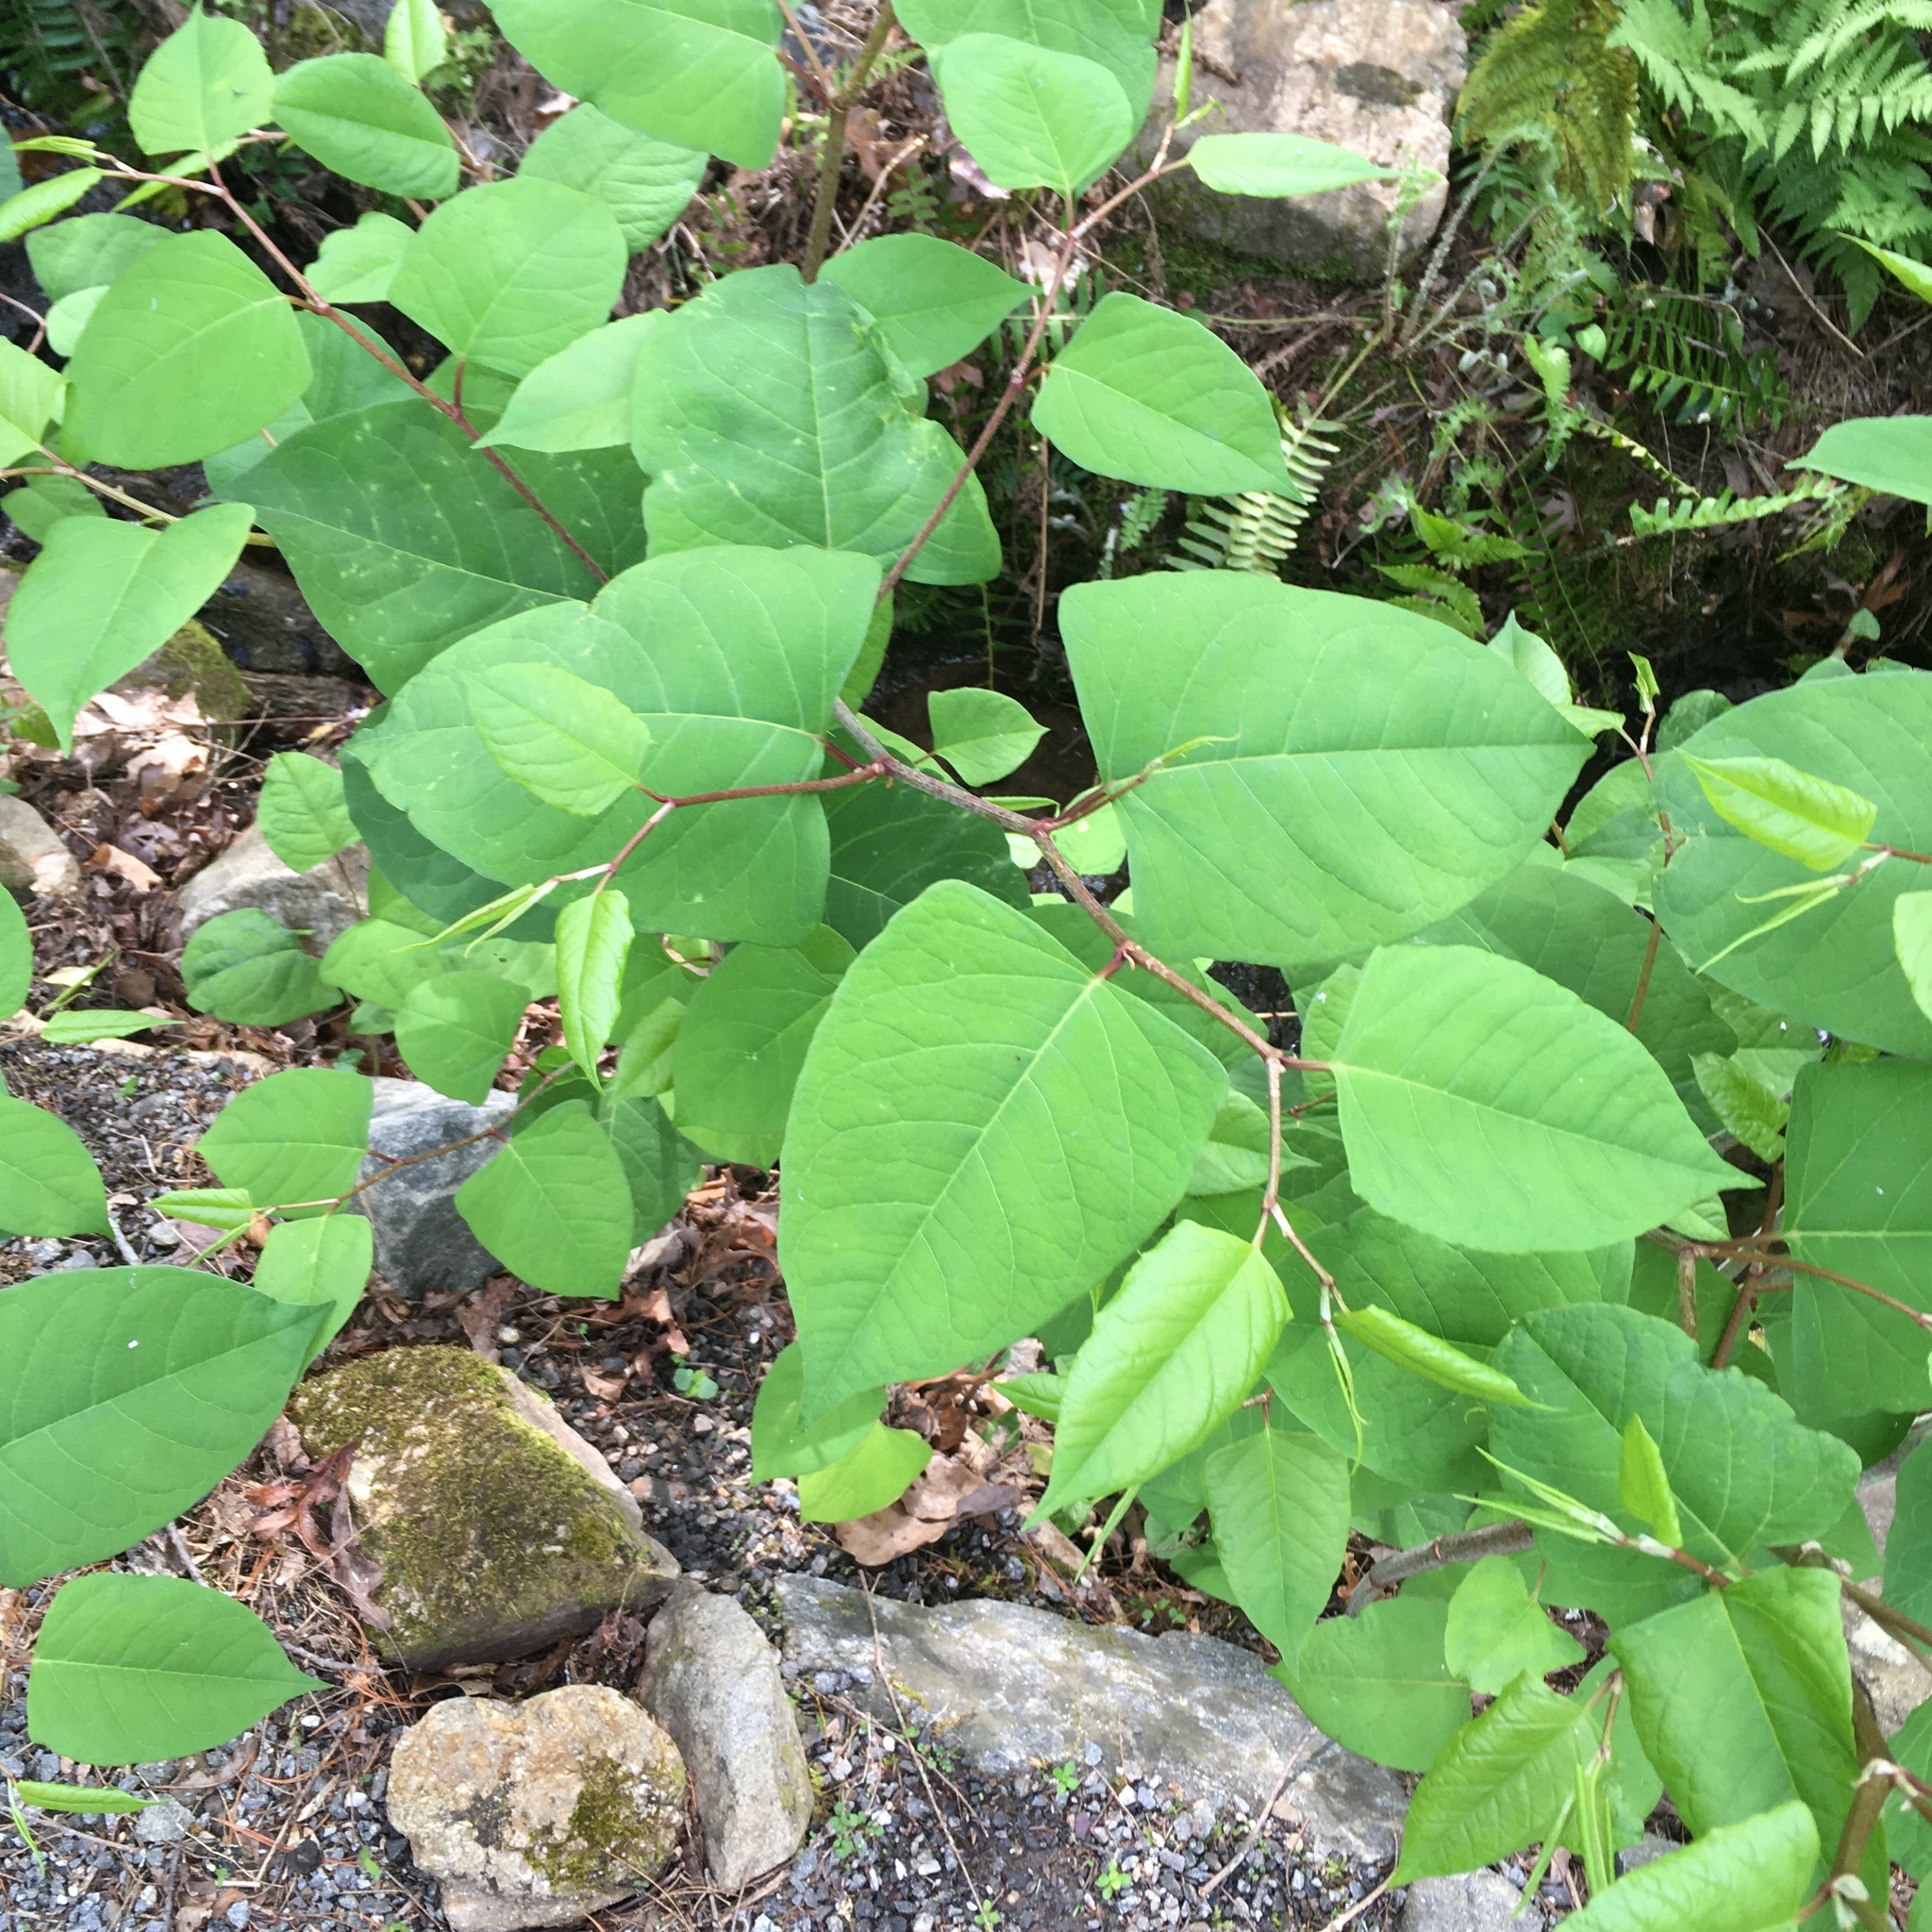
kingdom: Plantae
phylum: Tracheophyta
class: Magnoliopsida
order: Caryophyllales
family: Polygonaceae
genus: Reynoutria
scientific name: Reynoutria japonica
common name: Japanese knotweed
